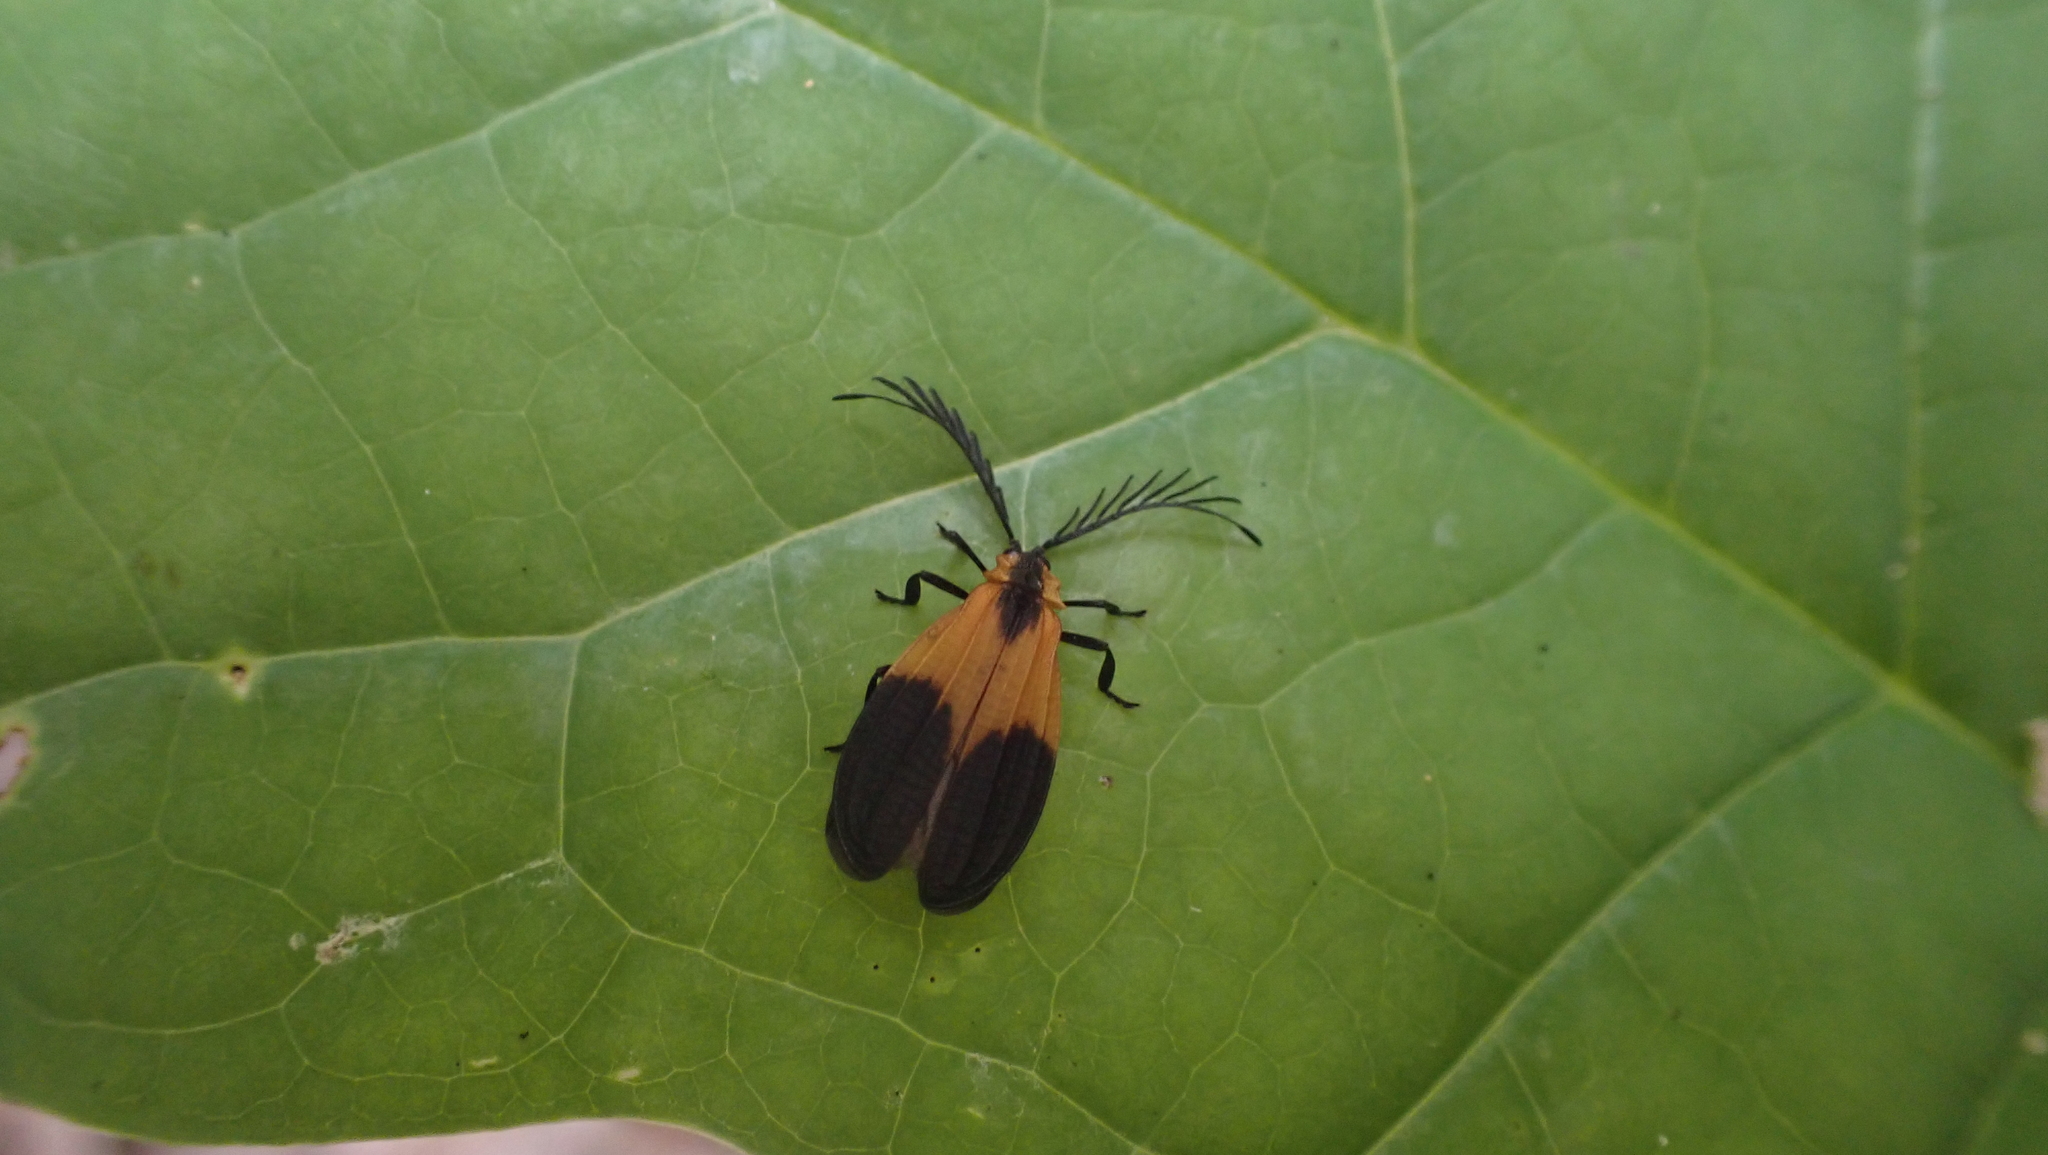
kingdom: Animalia
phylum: Arthropoda
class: Insecta
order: Coleoptera
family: Lycidae
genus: Caenia
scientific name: Caenia dimidiata
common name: Terminal net-winged beetle
